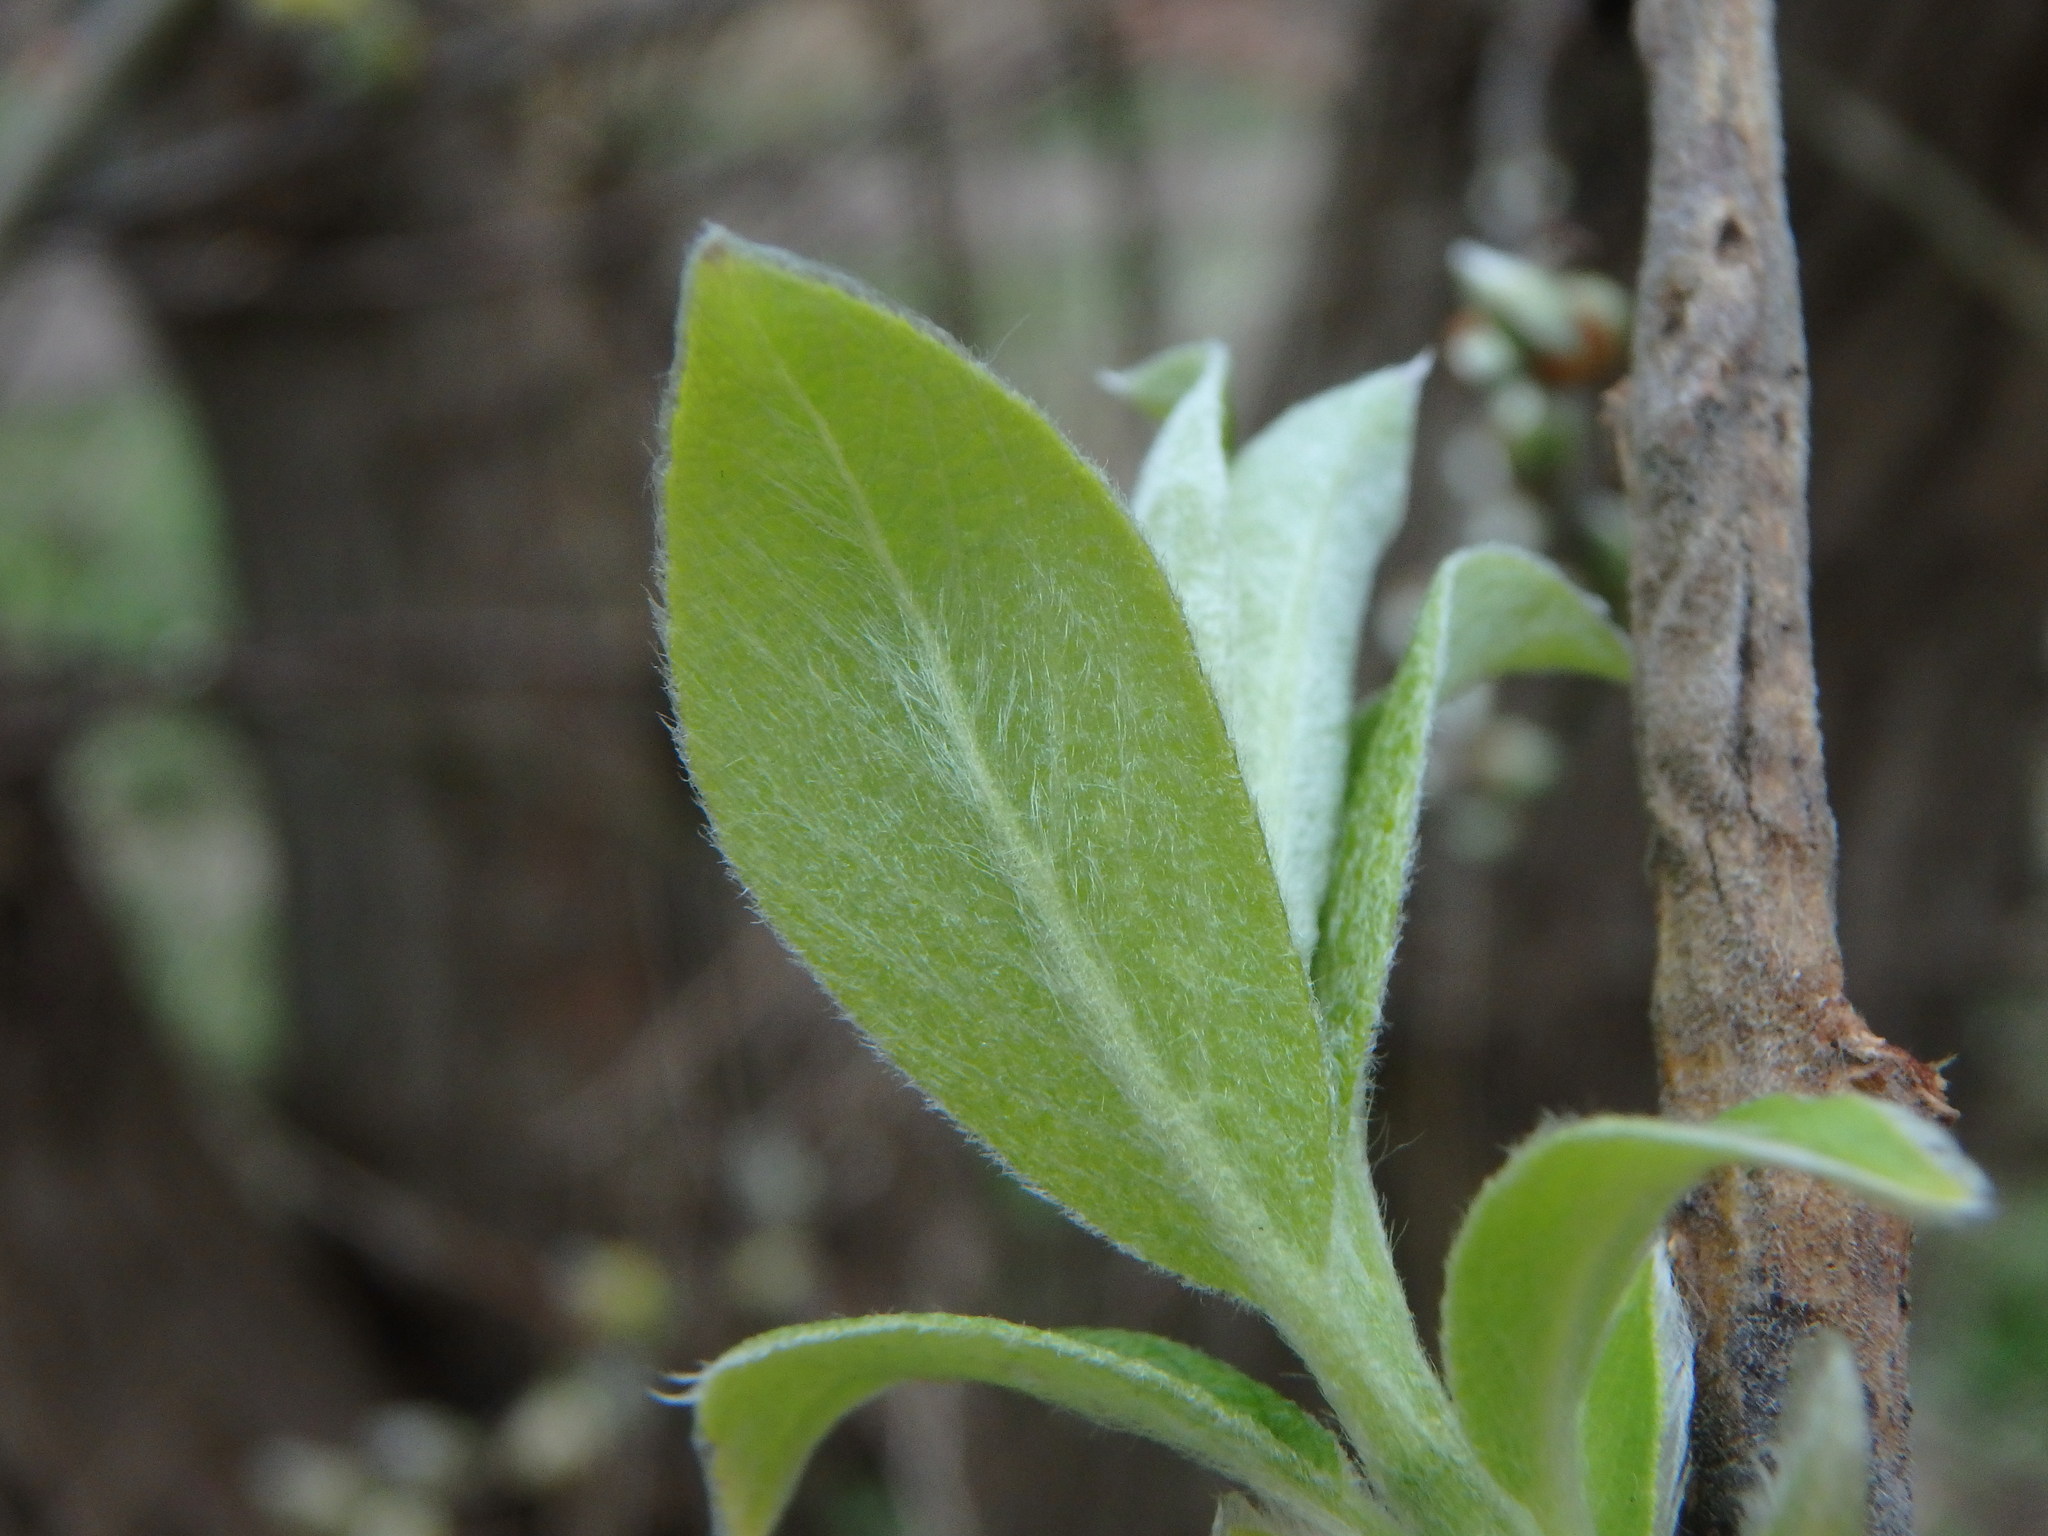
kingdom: Plantae
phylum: Tracheophyta
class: Magnoliopsida
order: Malpighiales
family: Salicaceae
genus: Salix
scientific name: Salix caprea
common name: Goat willow
